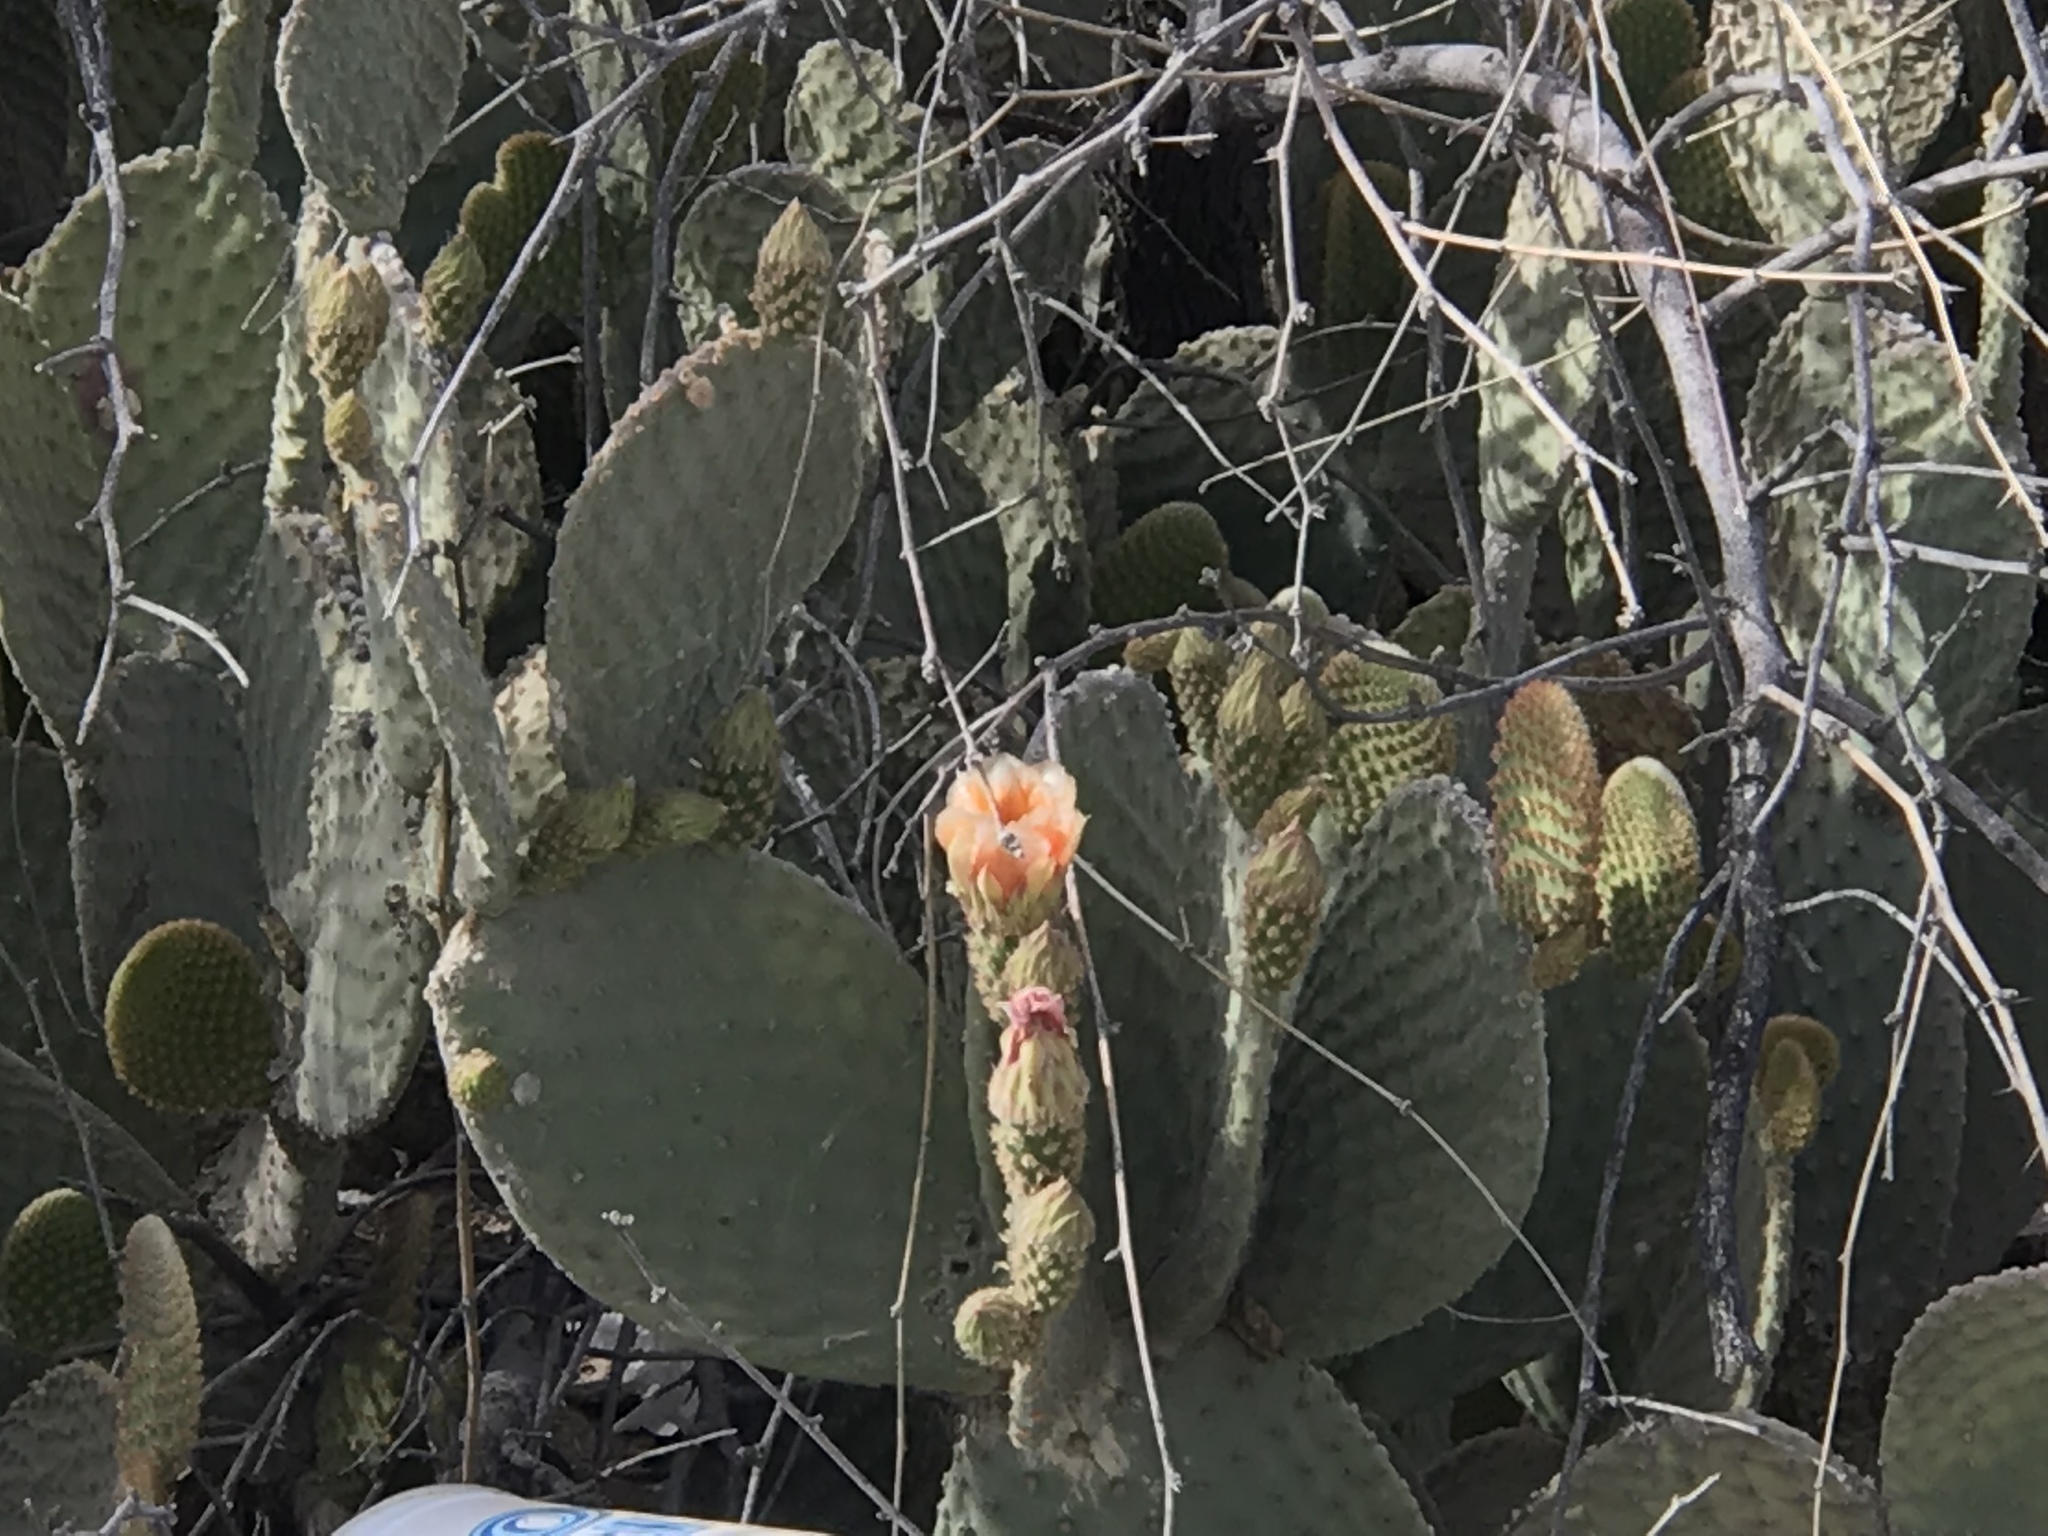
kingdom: Plantae
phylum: Tracheophyta
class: Magnoliopsida
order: Caryophyllales
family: Cactaceae
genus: Opuntia
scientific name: Opuntia microdasys
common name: Angel's-wings
